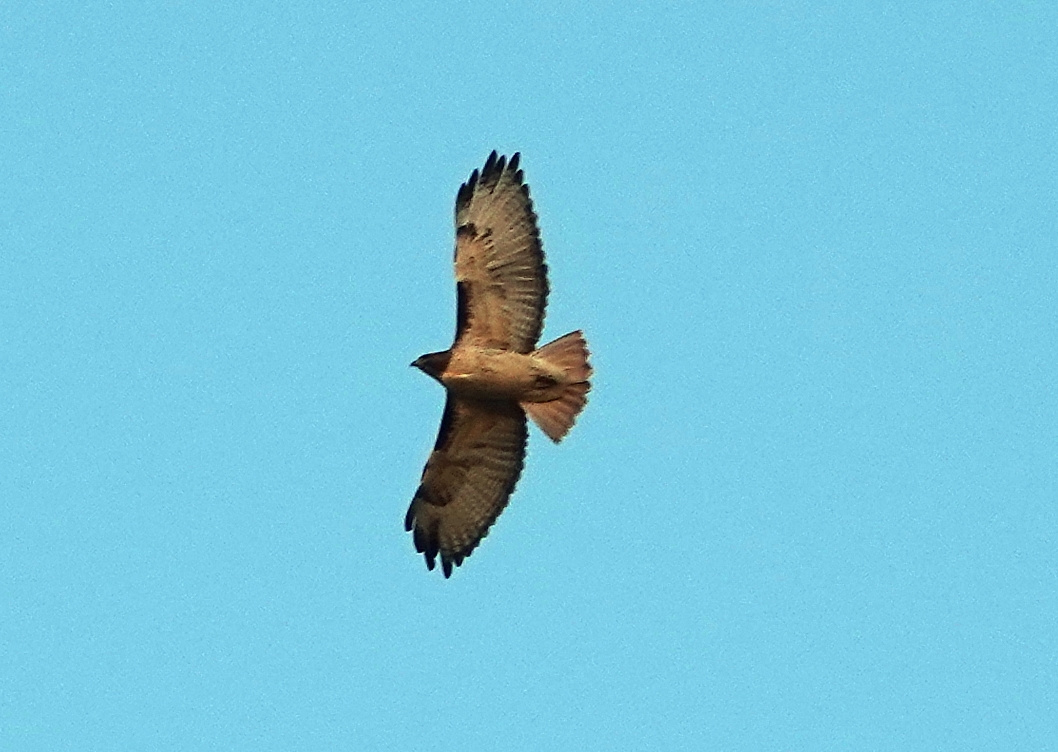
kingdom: Animalia
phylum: Chordata
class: Aves
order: Accipitriformes
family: Accipitridae
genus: Buteo
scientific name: Buteo jamaicensis
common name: Red-tailed hawk
